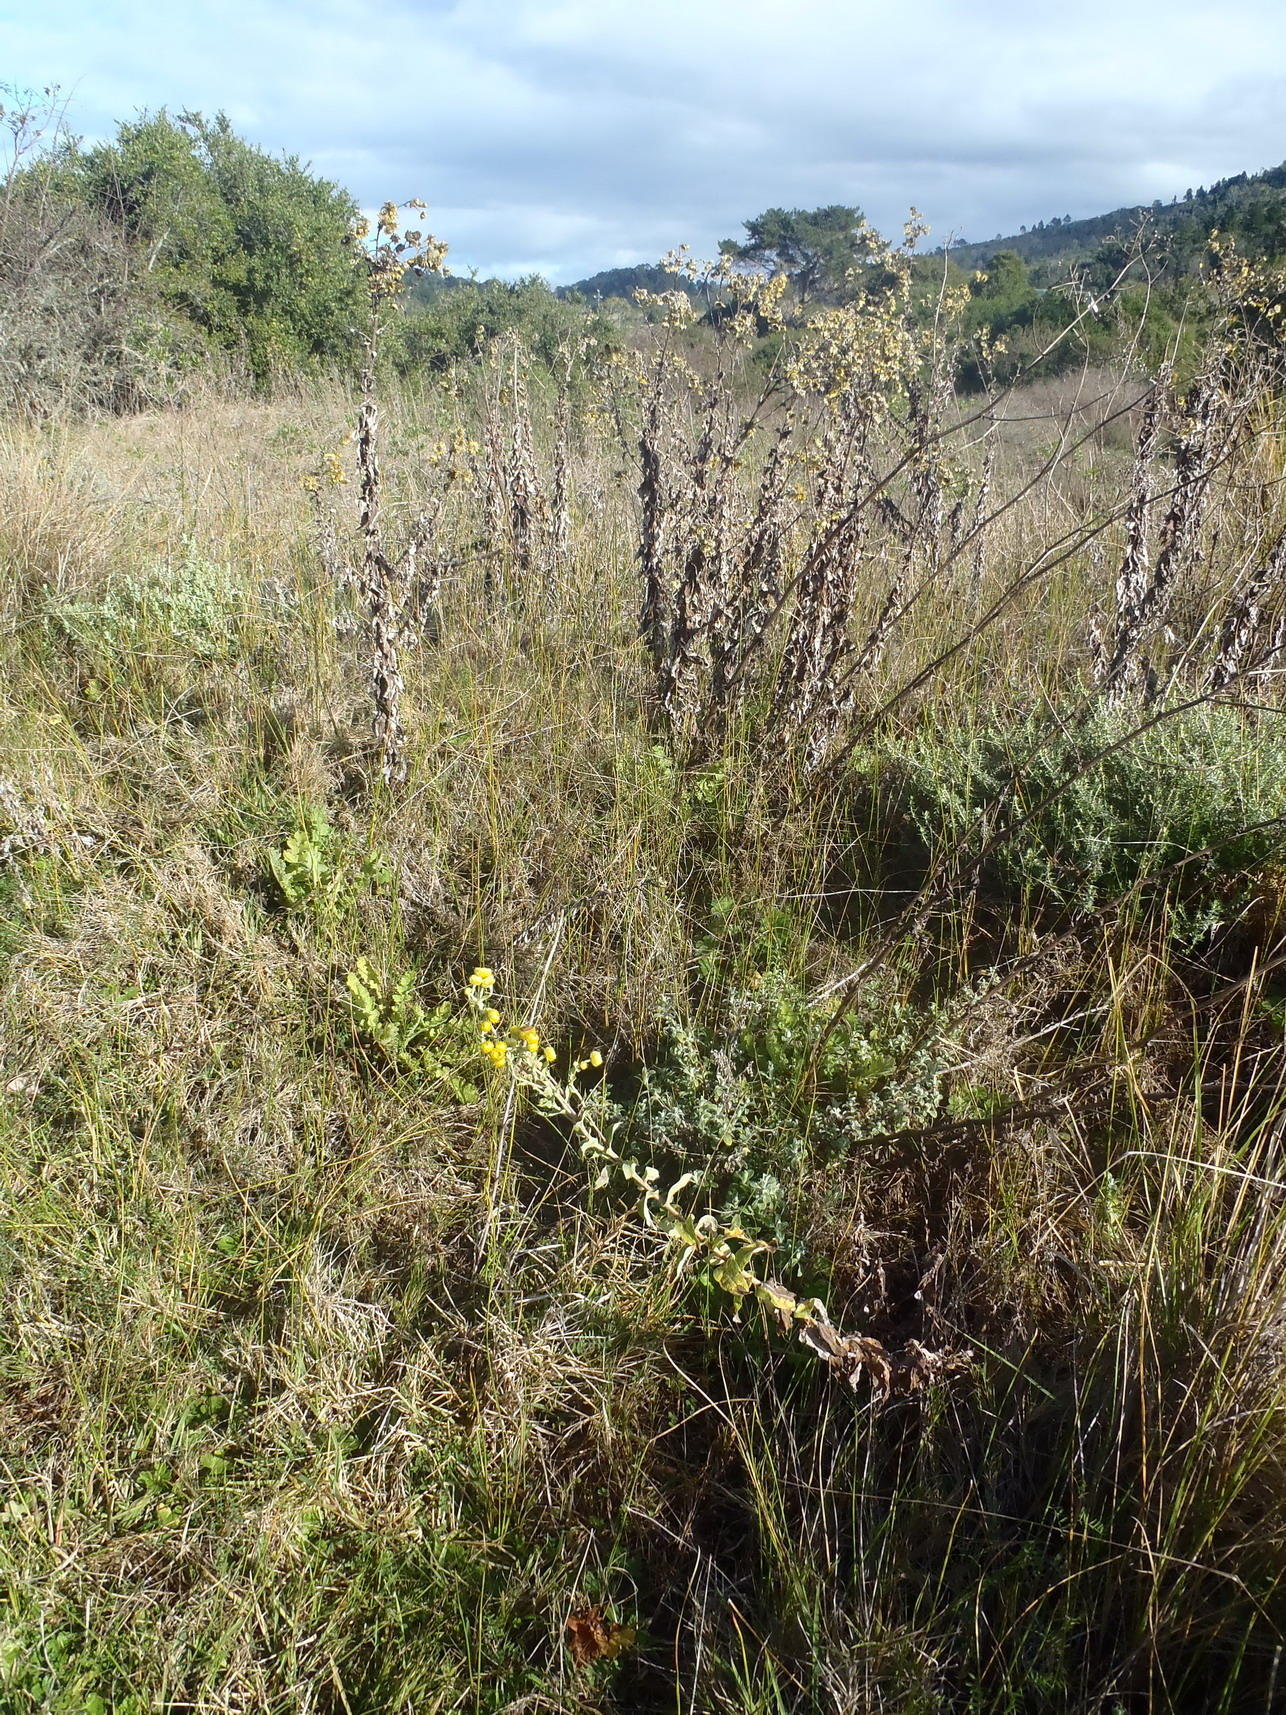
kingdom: Plantae
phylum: Tracheophyta
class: Magnoliopsida
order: Asterales
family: Asteraceae
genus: Helichrysum
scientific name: Helichrysum foetidum
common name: Stinking everlasting
